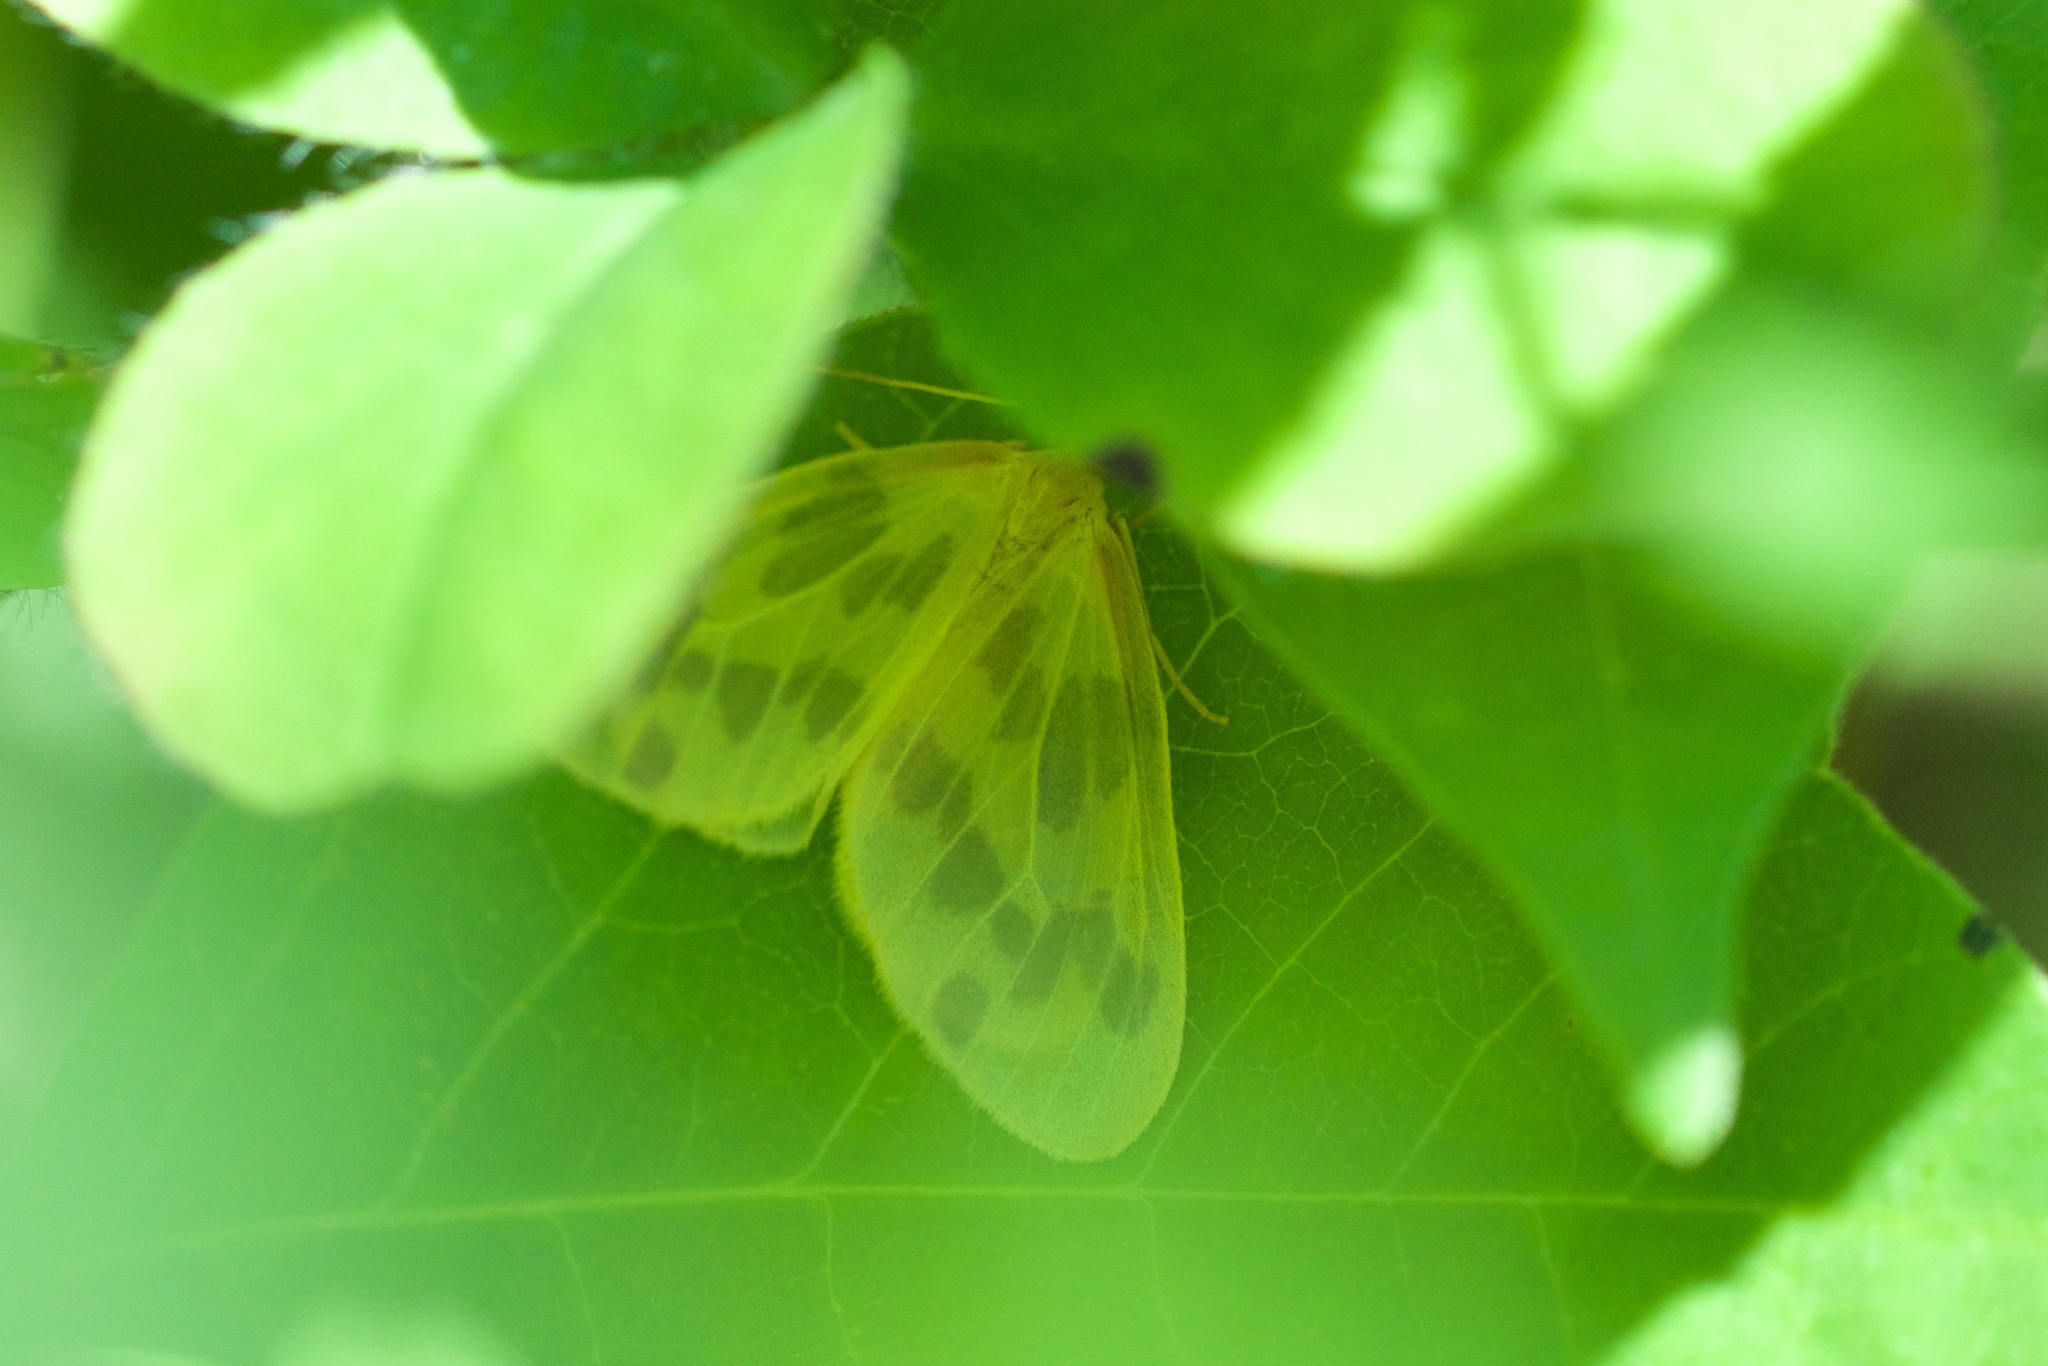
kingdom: Animalia
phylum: Arthropoda
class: Insecta
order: Lepidoptera
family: Geometridae
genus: Eubaphe
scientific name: Eubaphe mendica
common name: Beggar
